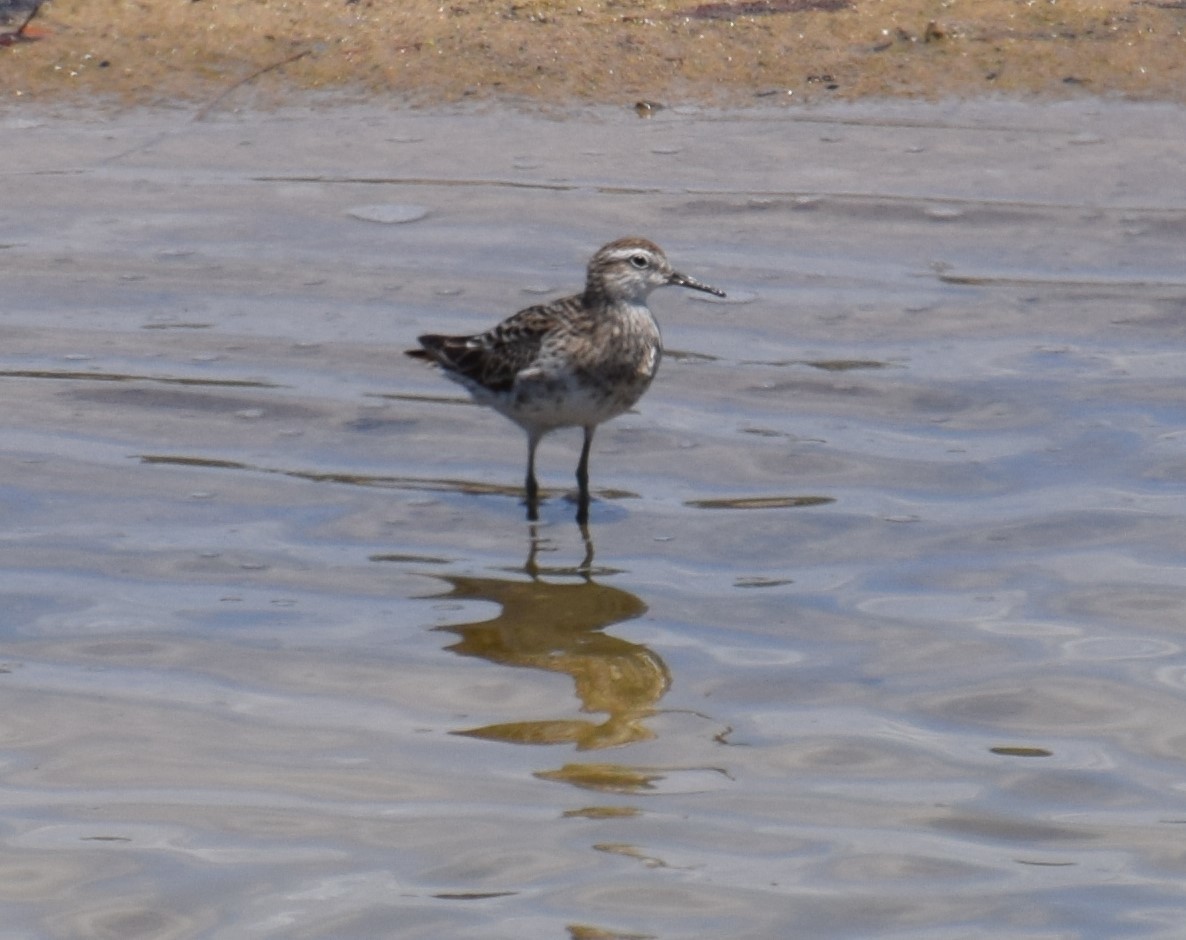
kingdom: Animalia
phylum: Chordata
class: Aves
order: Charadriiformes
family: Scolopacidae
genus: Calidris
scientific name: Calidris acuminata
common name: Sharp-tailed sandpiper
